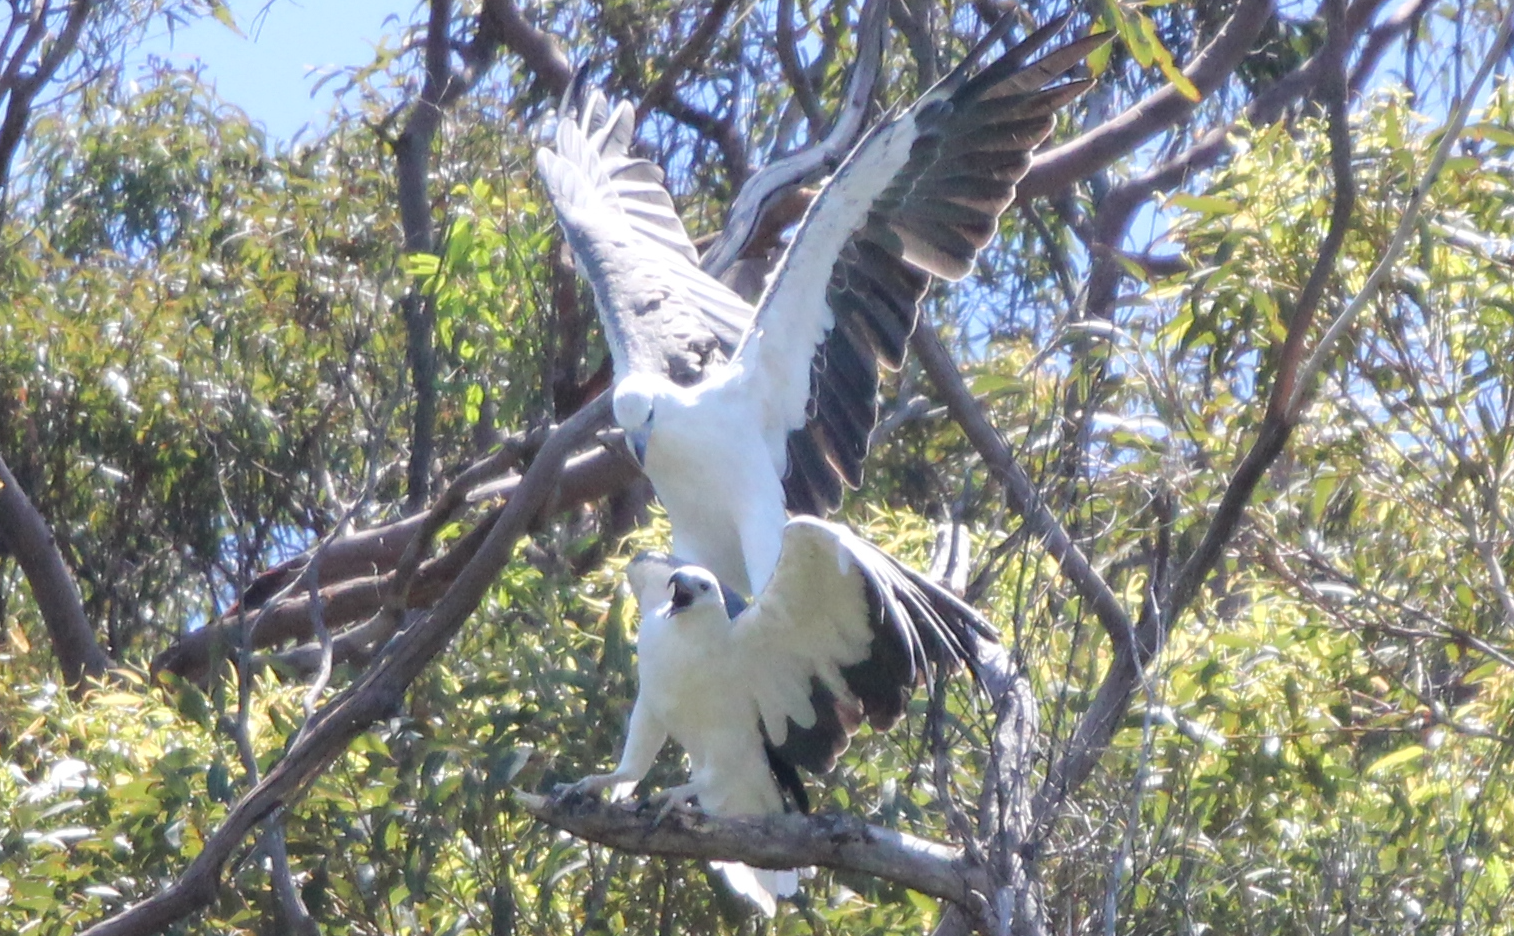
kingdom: Animalia
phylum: Chordata
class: Aves
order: Accipitriformes
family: Accipitridae
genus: Haliaeetus
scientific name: Haliaeetus leucogaster
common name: White-bellied sea eagle
